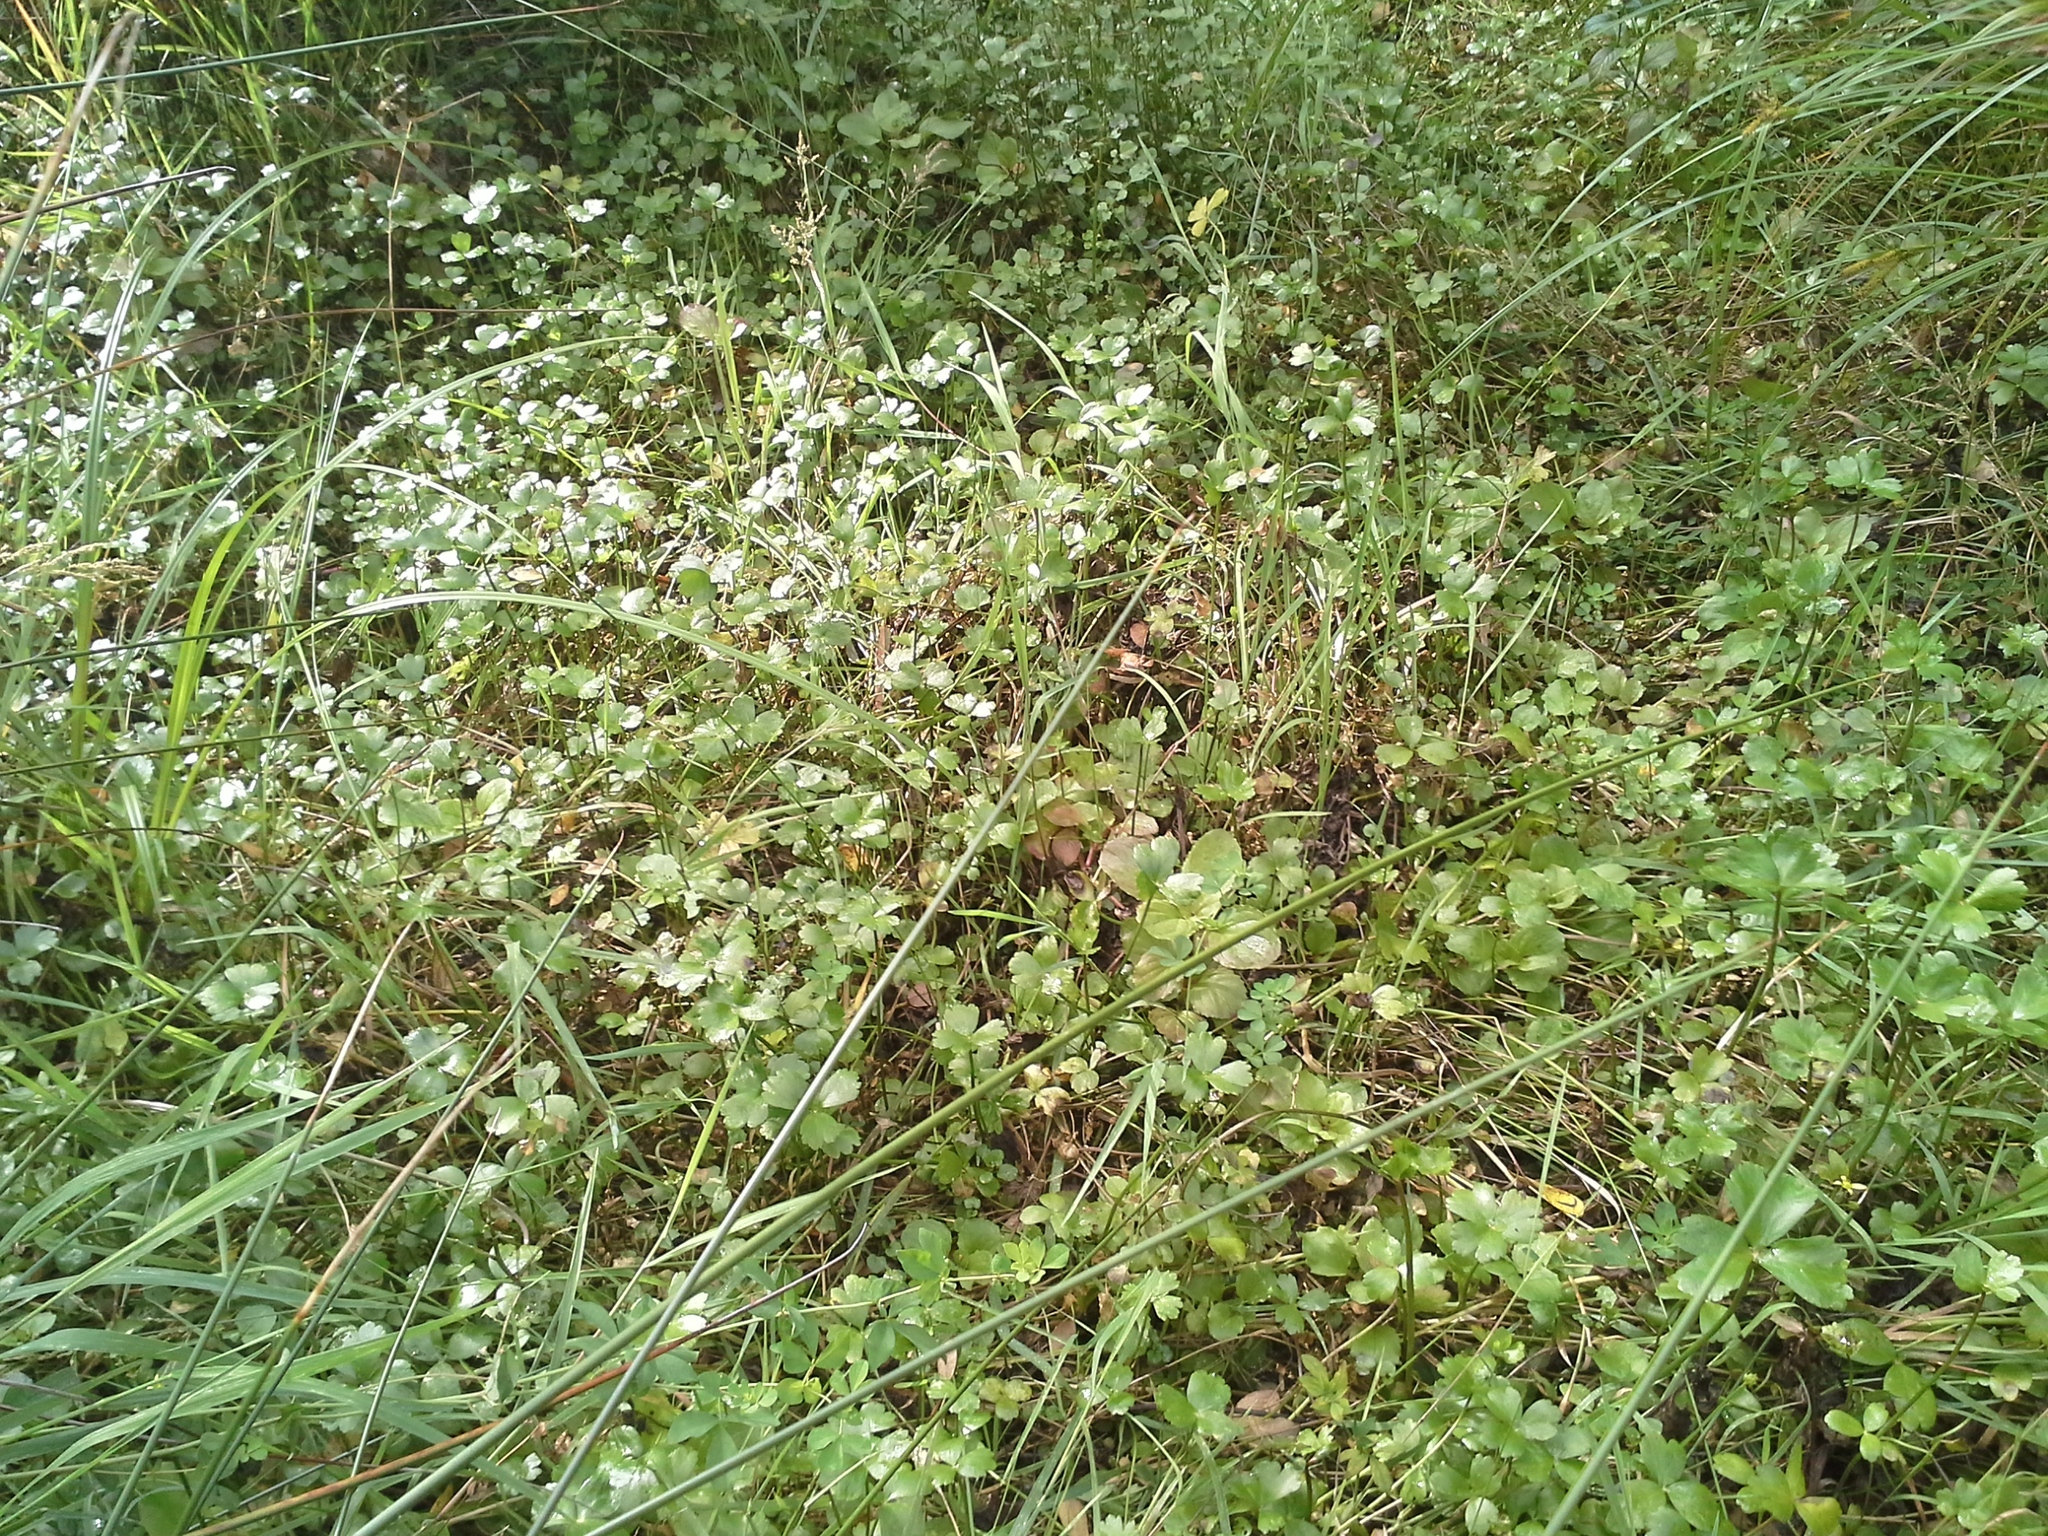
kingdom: Plantae
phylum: Tracheophyta
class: Magnoliopsida
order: Ranunculales
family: Ranunculaceae
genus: Ranunculus
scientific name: Ranunculus macropus
